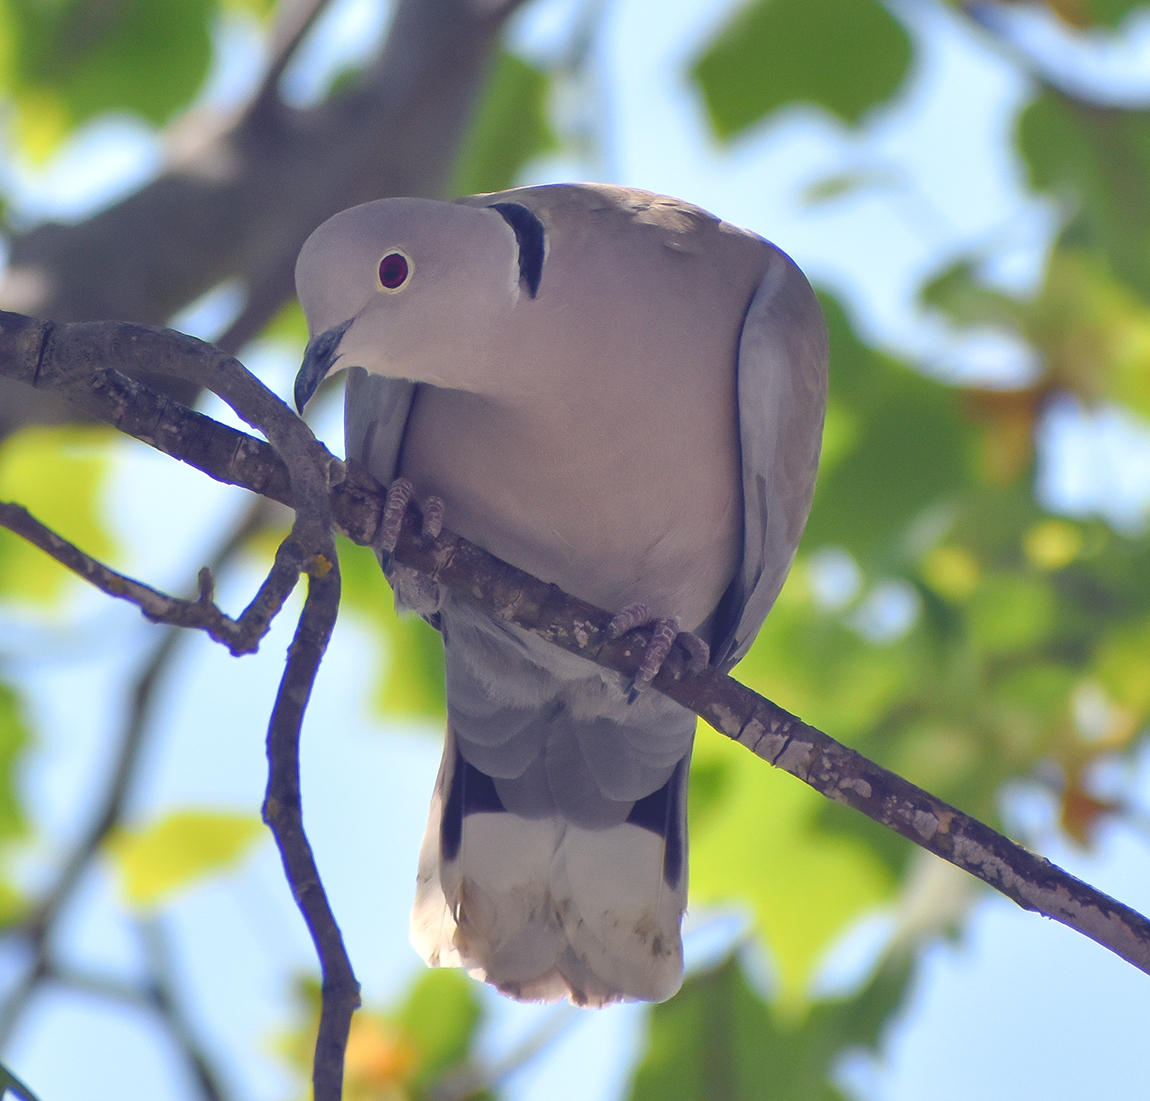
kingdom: Animalia
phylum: Chordata
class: Aves
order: Columbiformes
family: Columbidae
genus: Streptopelia
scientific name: Streptopelia decaocto
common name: Eurasian collared dove
